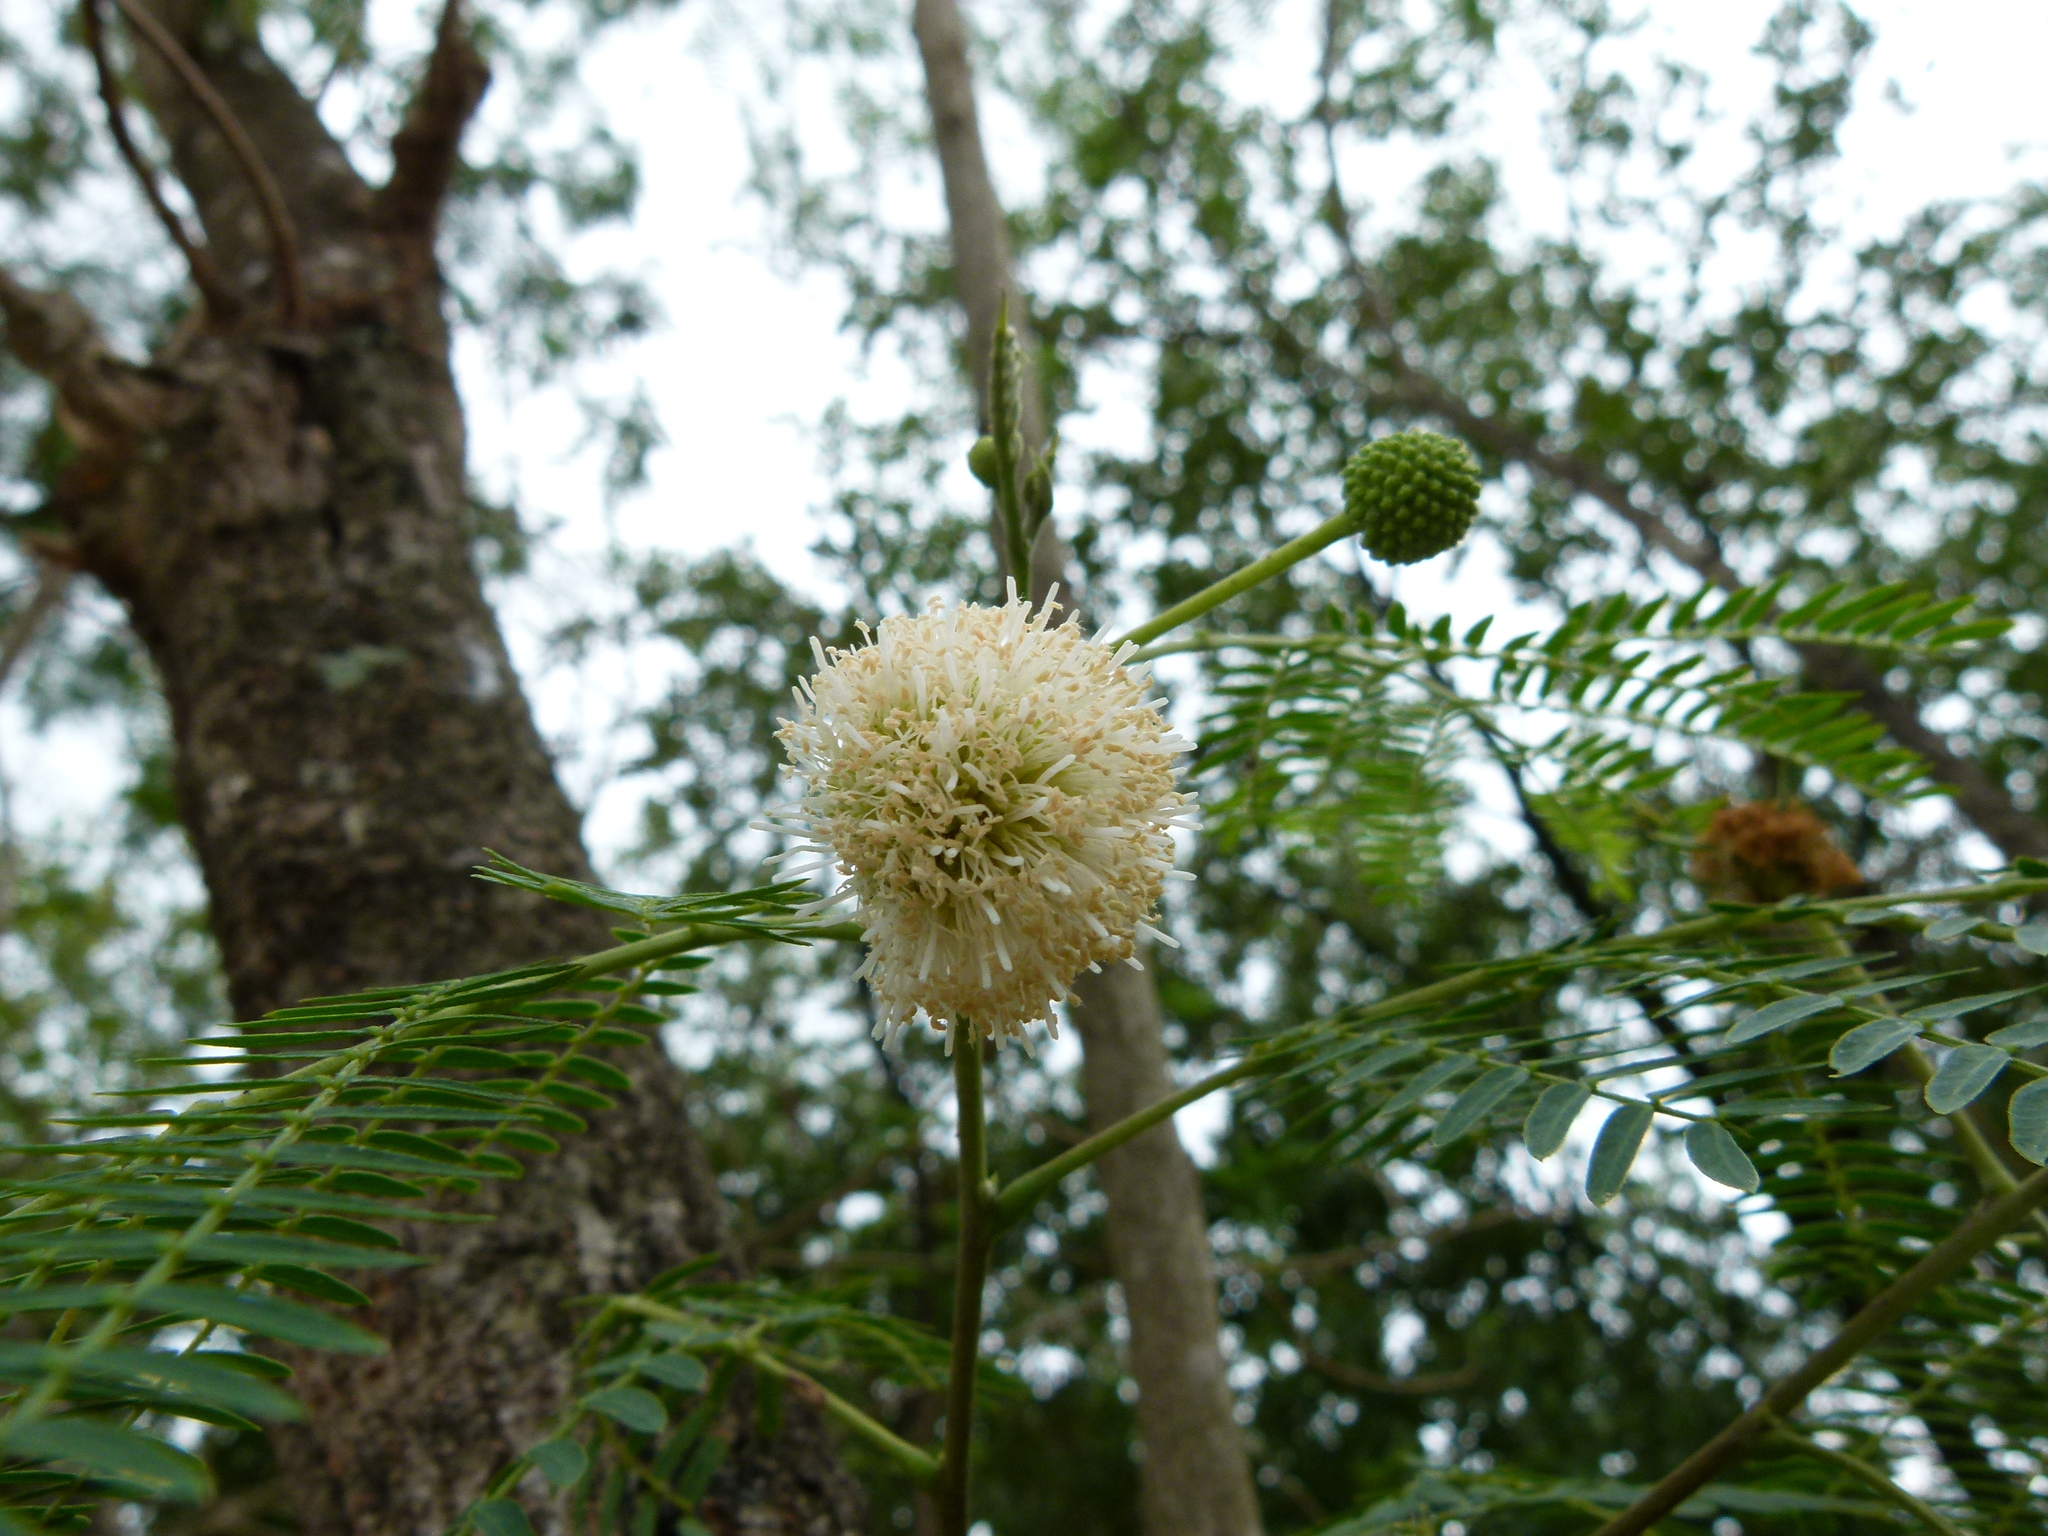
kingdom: Plantae
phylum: Tracheophyta
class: Magnoliopsida
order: Fabales
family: Fabaceae
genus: Leucaena
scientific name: Leucaena leucocephala
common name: White leadtree
